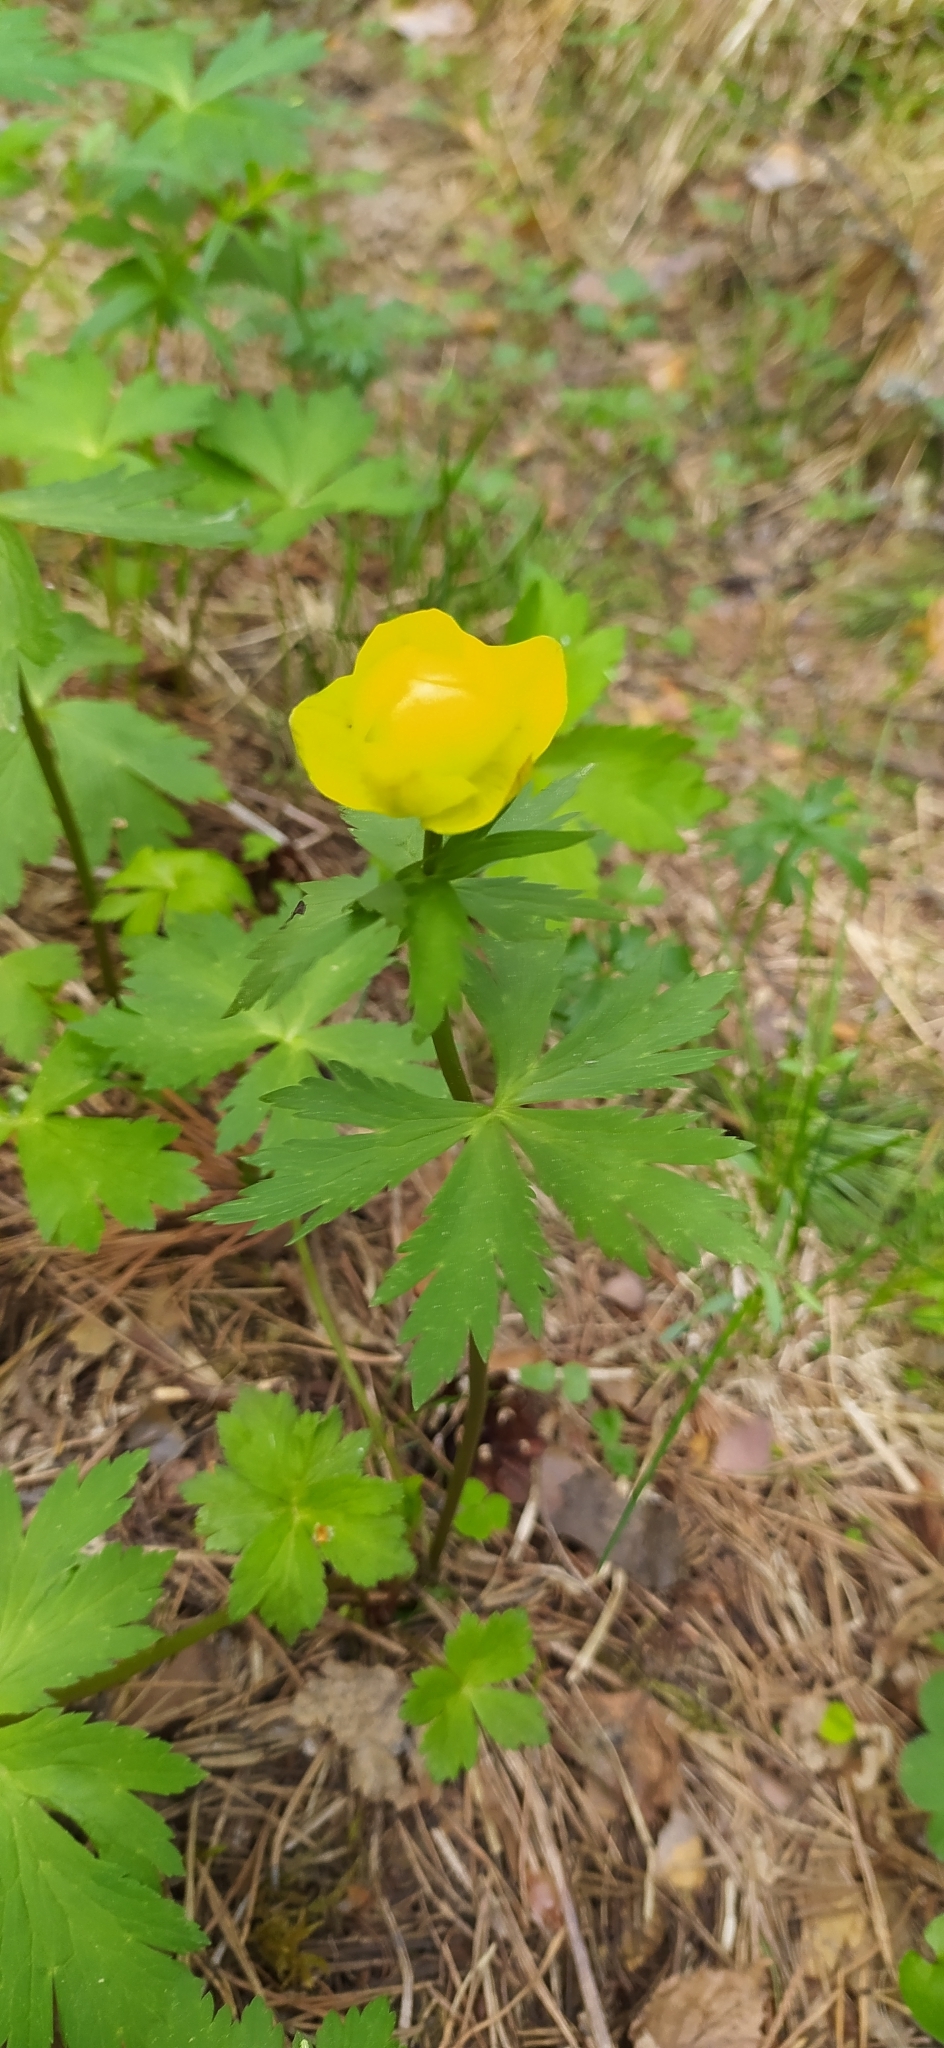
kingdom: Plantae
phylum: Tracheophyta
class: Magnoliopsida
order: Ranunculales
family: Ranunculaceae
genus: Trollius
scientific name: Trollius europaeus
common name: European globeflower
